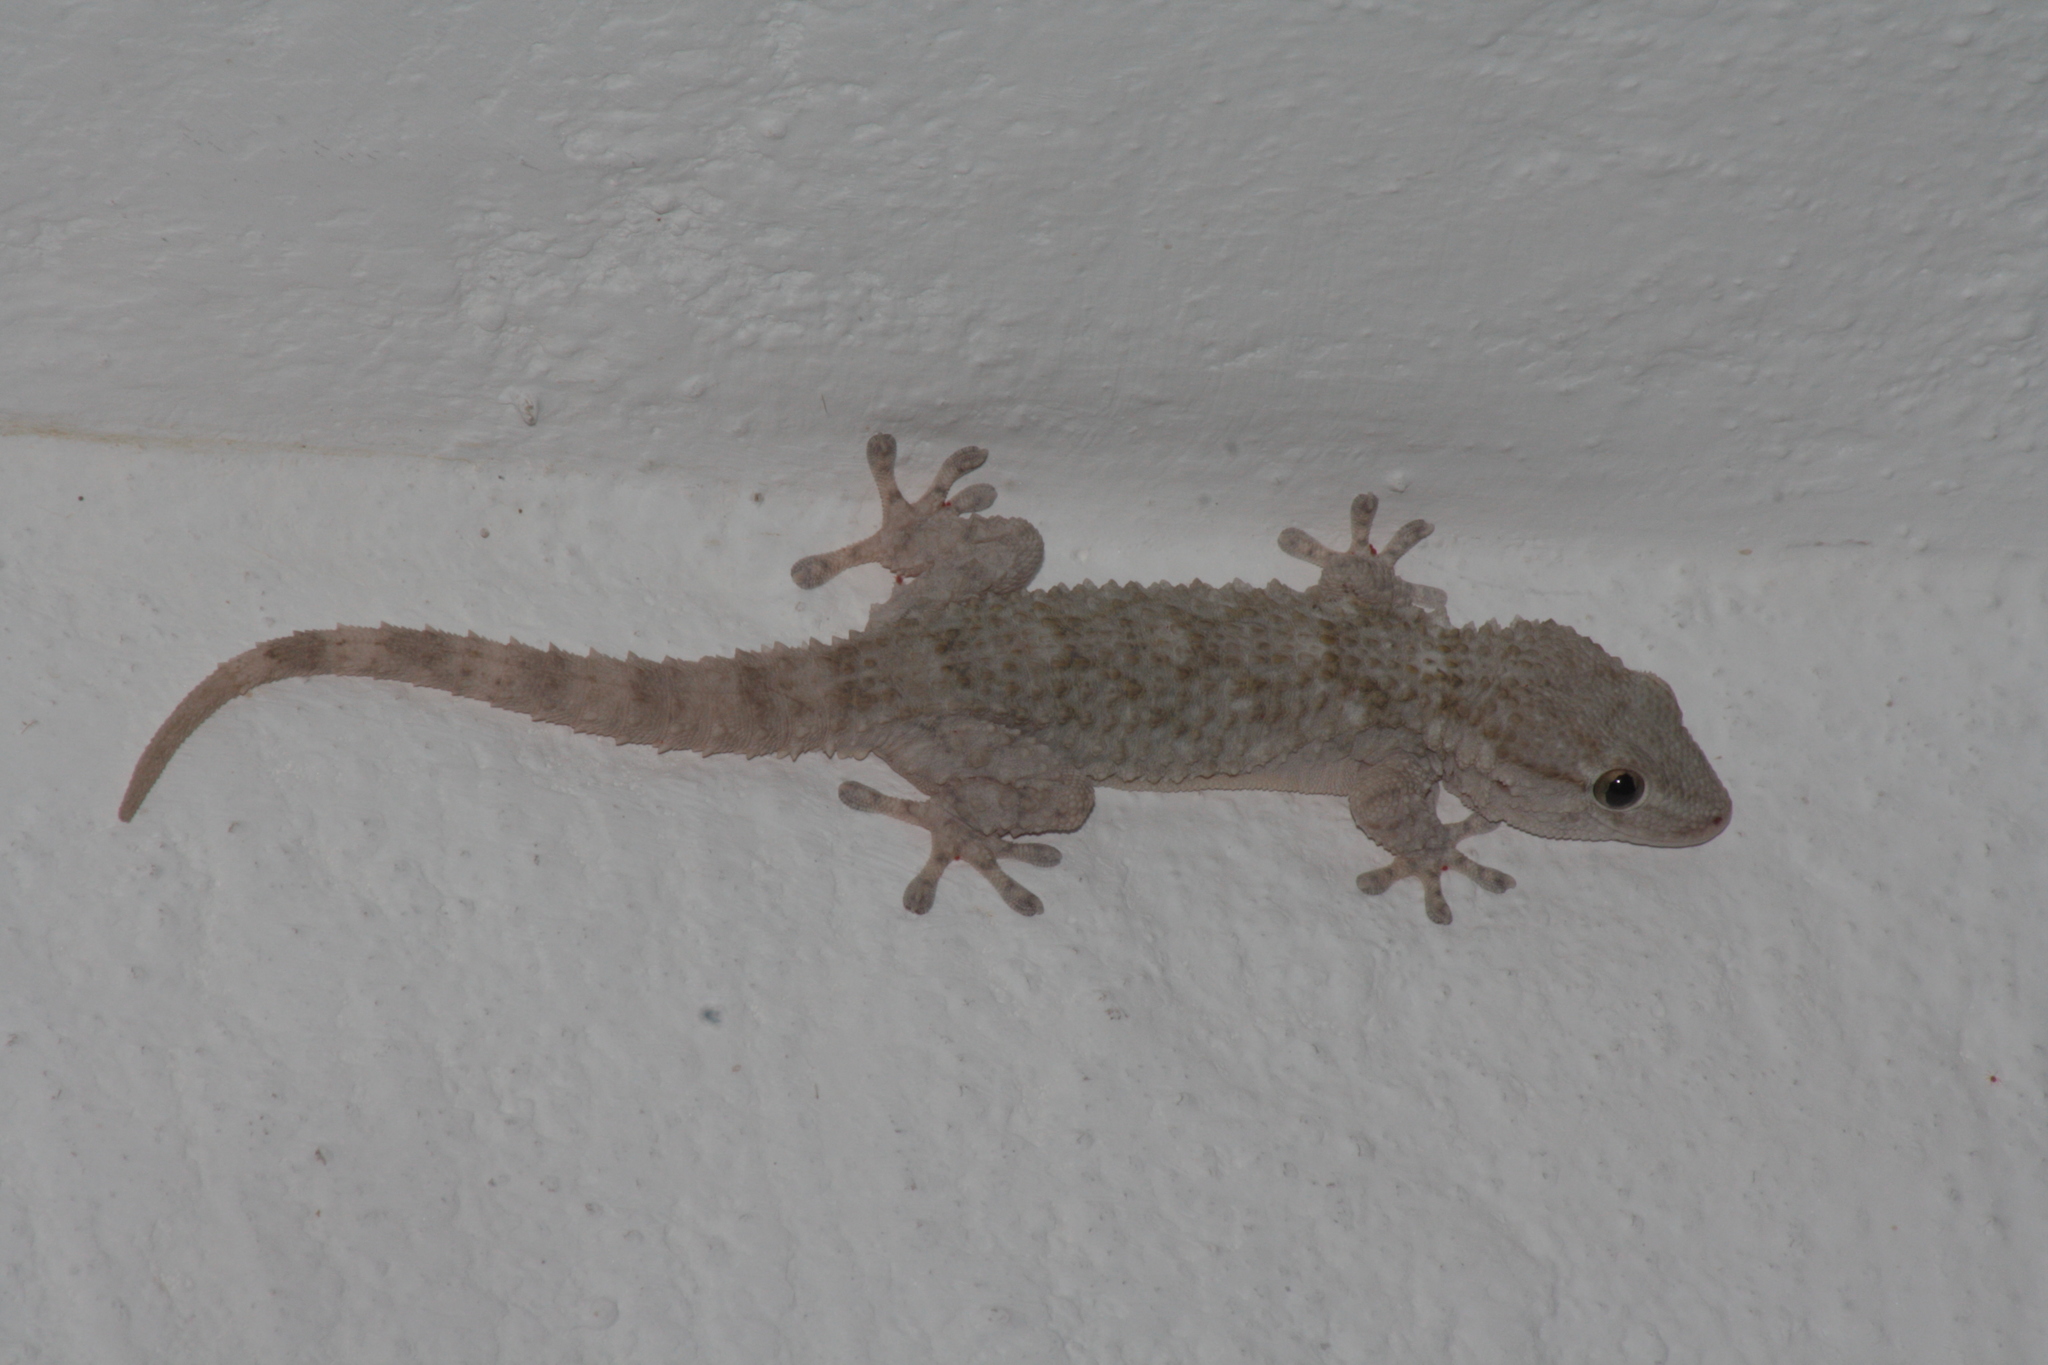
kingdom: Animalia
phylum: Chordata
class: Squamata
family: Phyllodactylidae
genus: Tarentola
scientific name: Tarentola mauritanica
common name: Moorish gecko
